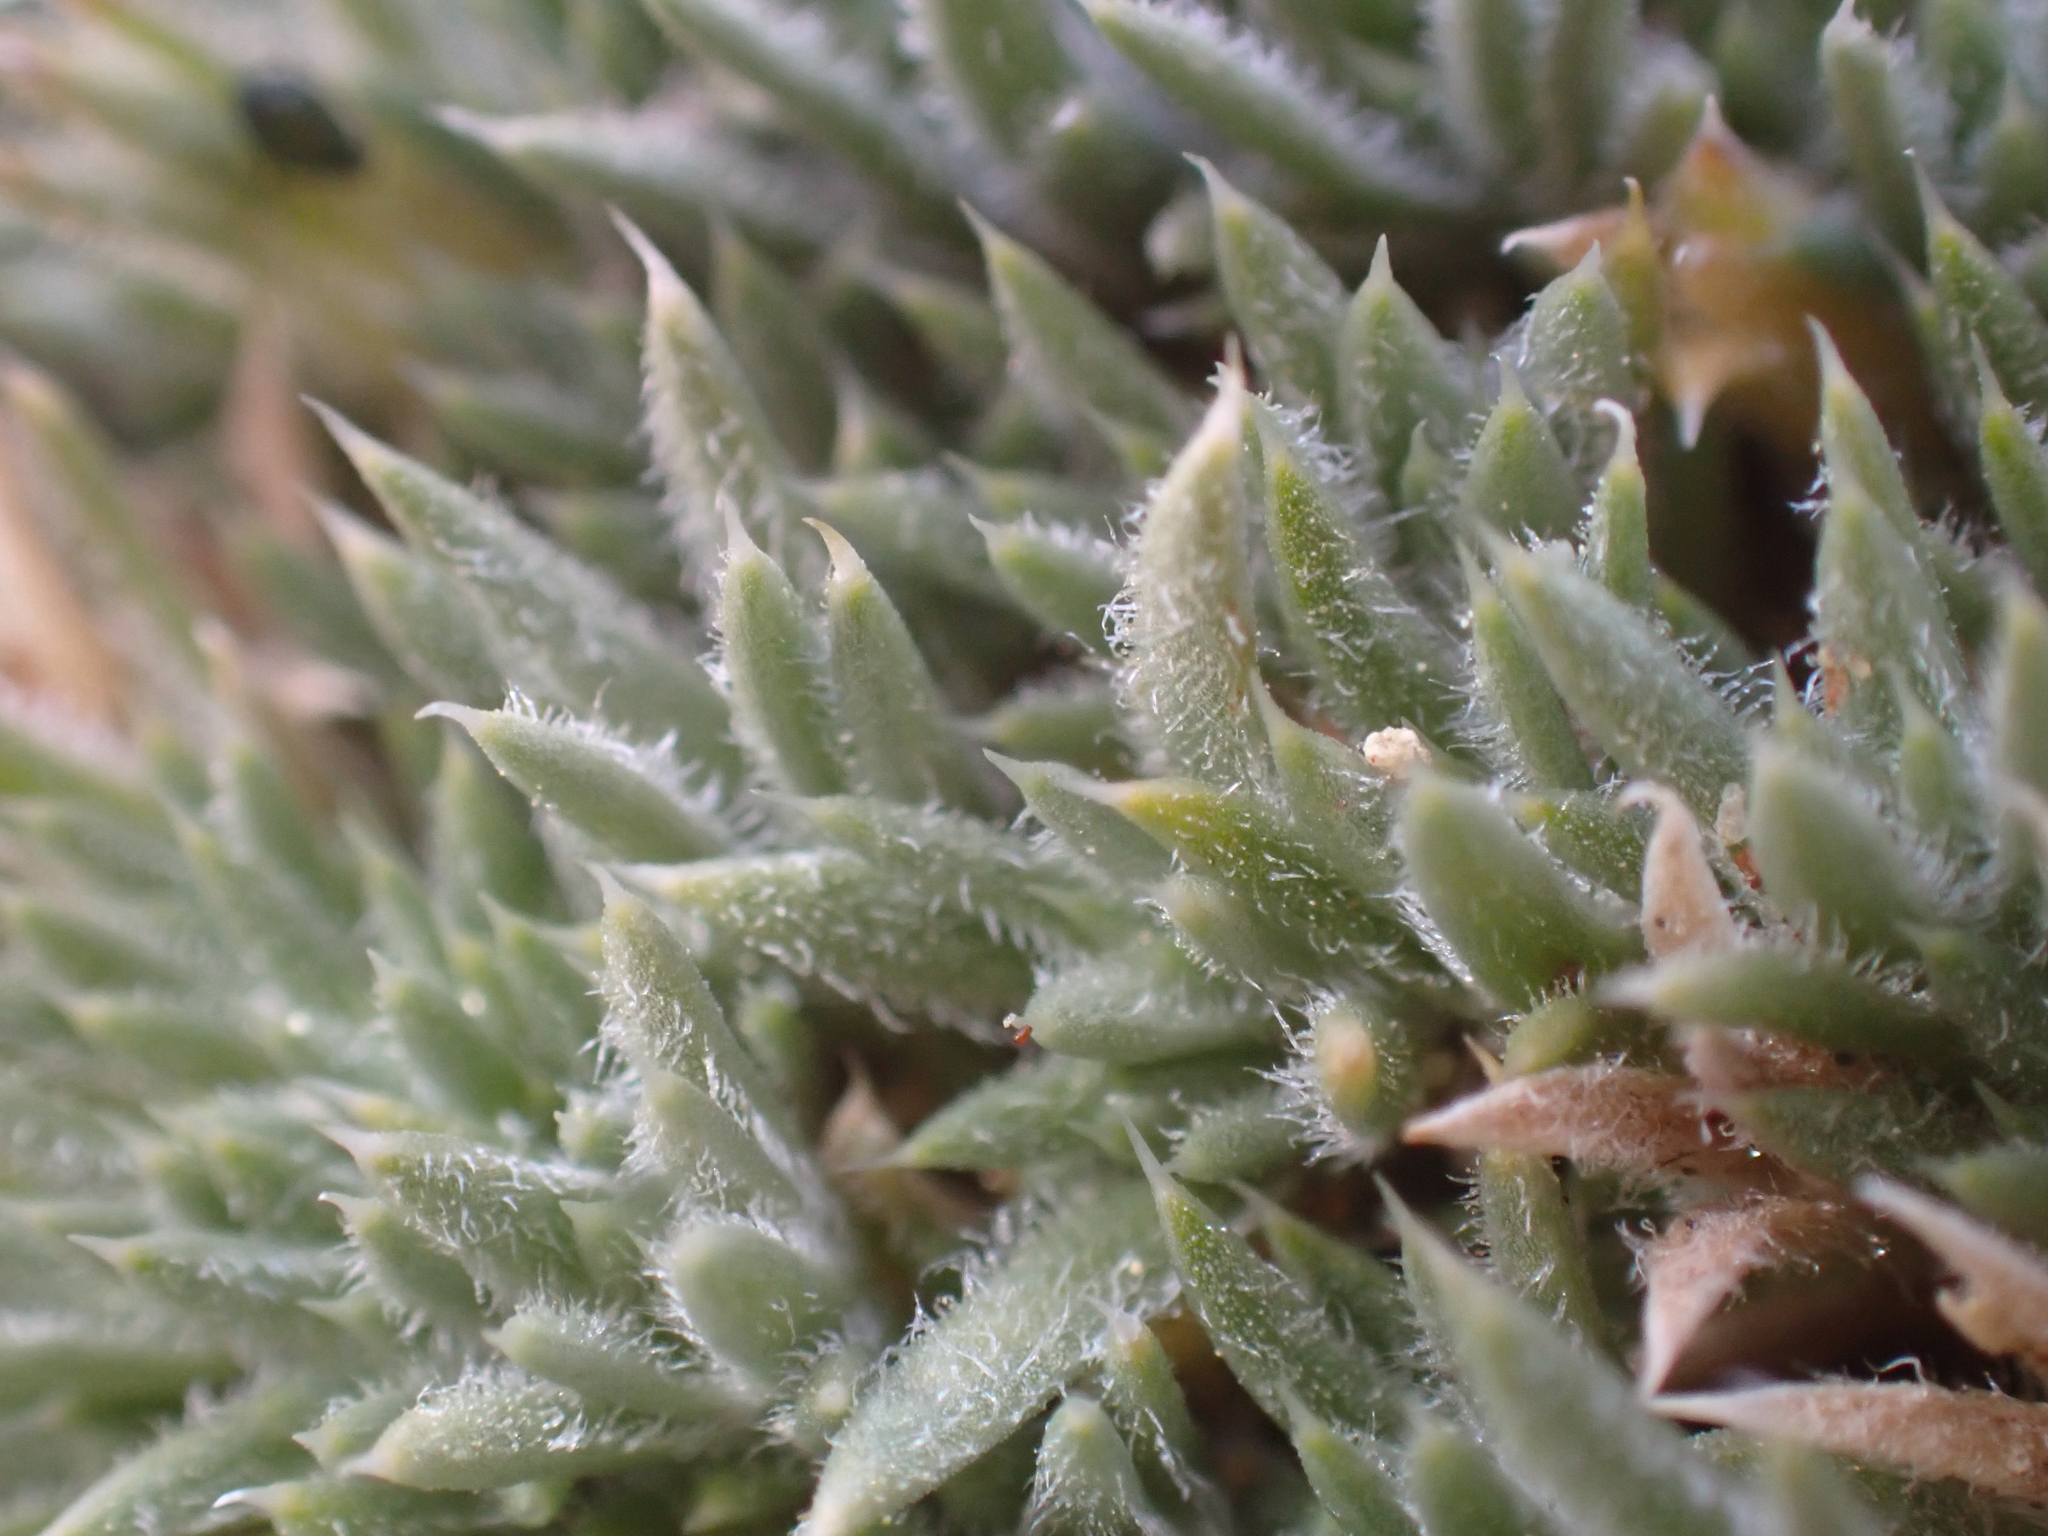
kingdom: Plantae
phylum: Tracheophyta
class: Magnoliopsida
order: Ericales
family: Polemoniaceae
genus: Phlox
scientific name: Phlox condensata
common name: Compact phlox
